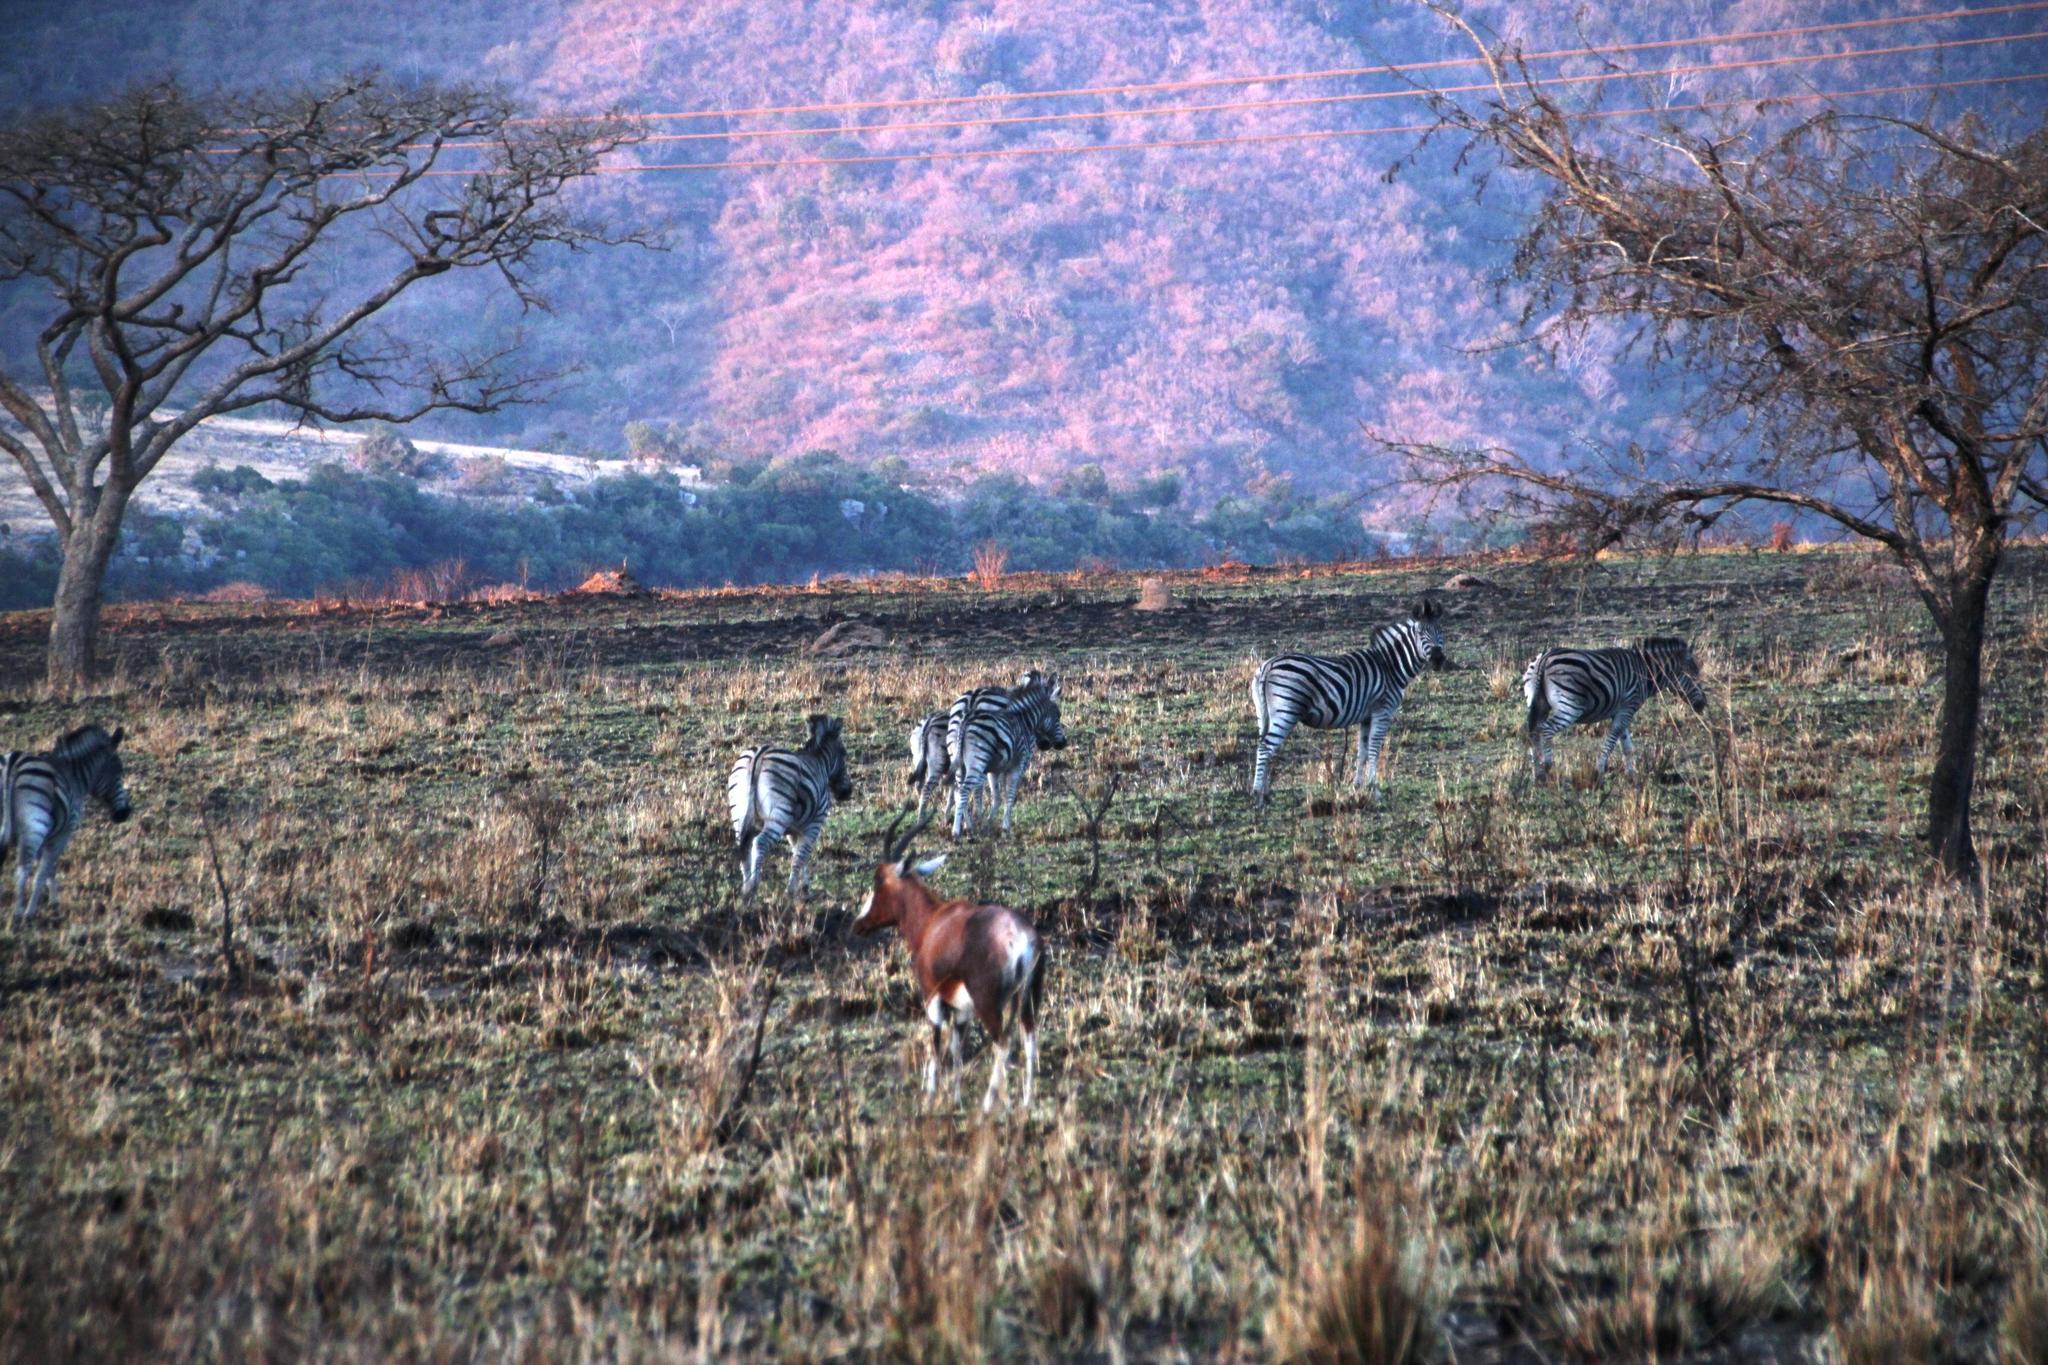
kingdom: Animalia
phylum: Chordata
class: Mammalia
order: Artiodactyla
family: Bovidae
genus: Damaliscus
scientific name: Damaliscus pygargus
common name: Bontebok
